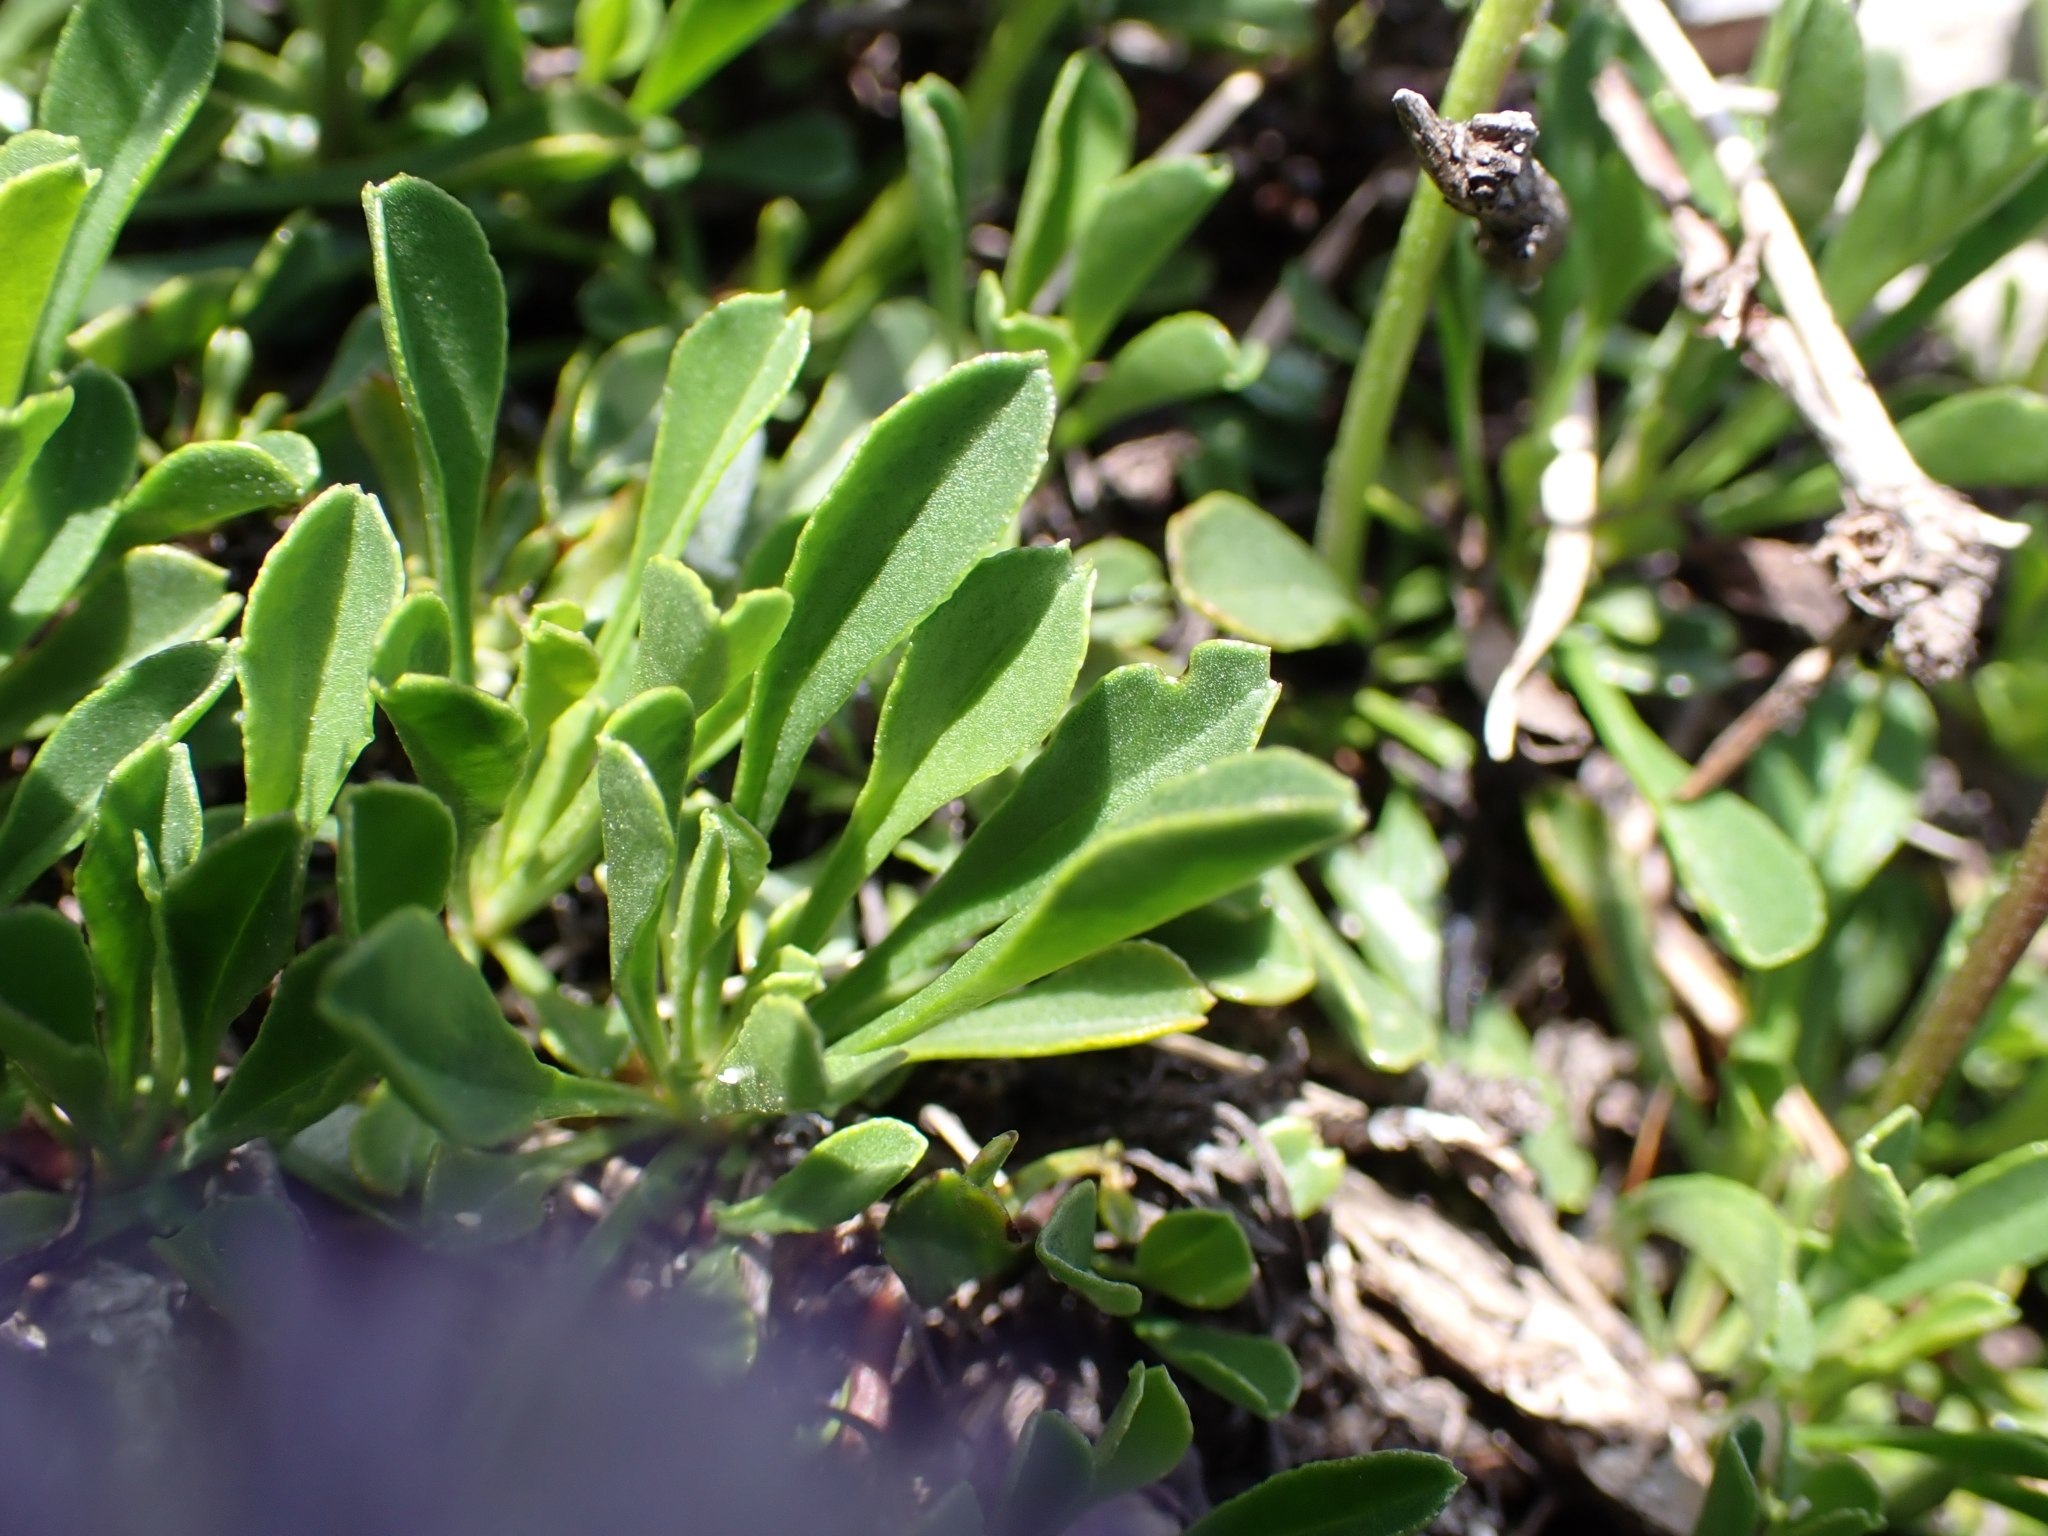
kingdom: Plantae
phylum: Tracheophyta
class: Magnoliopsida
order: Lamiales
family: Plantaginaceae
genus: Globularia
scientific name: Globularia cordifolia
